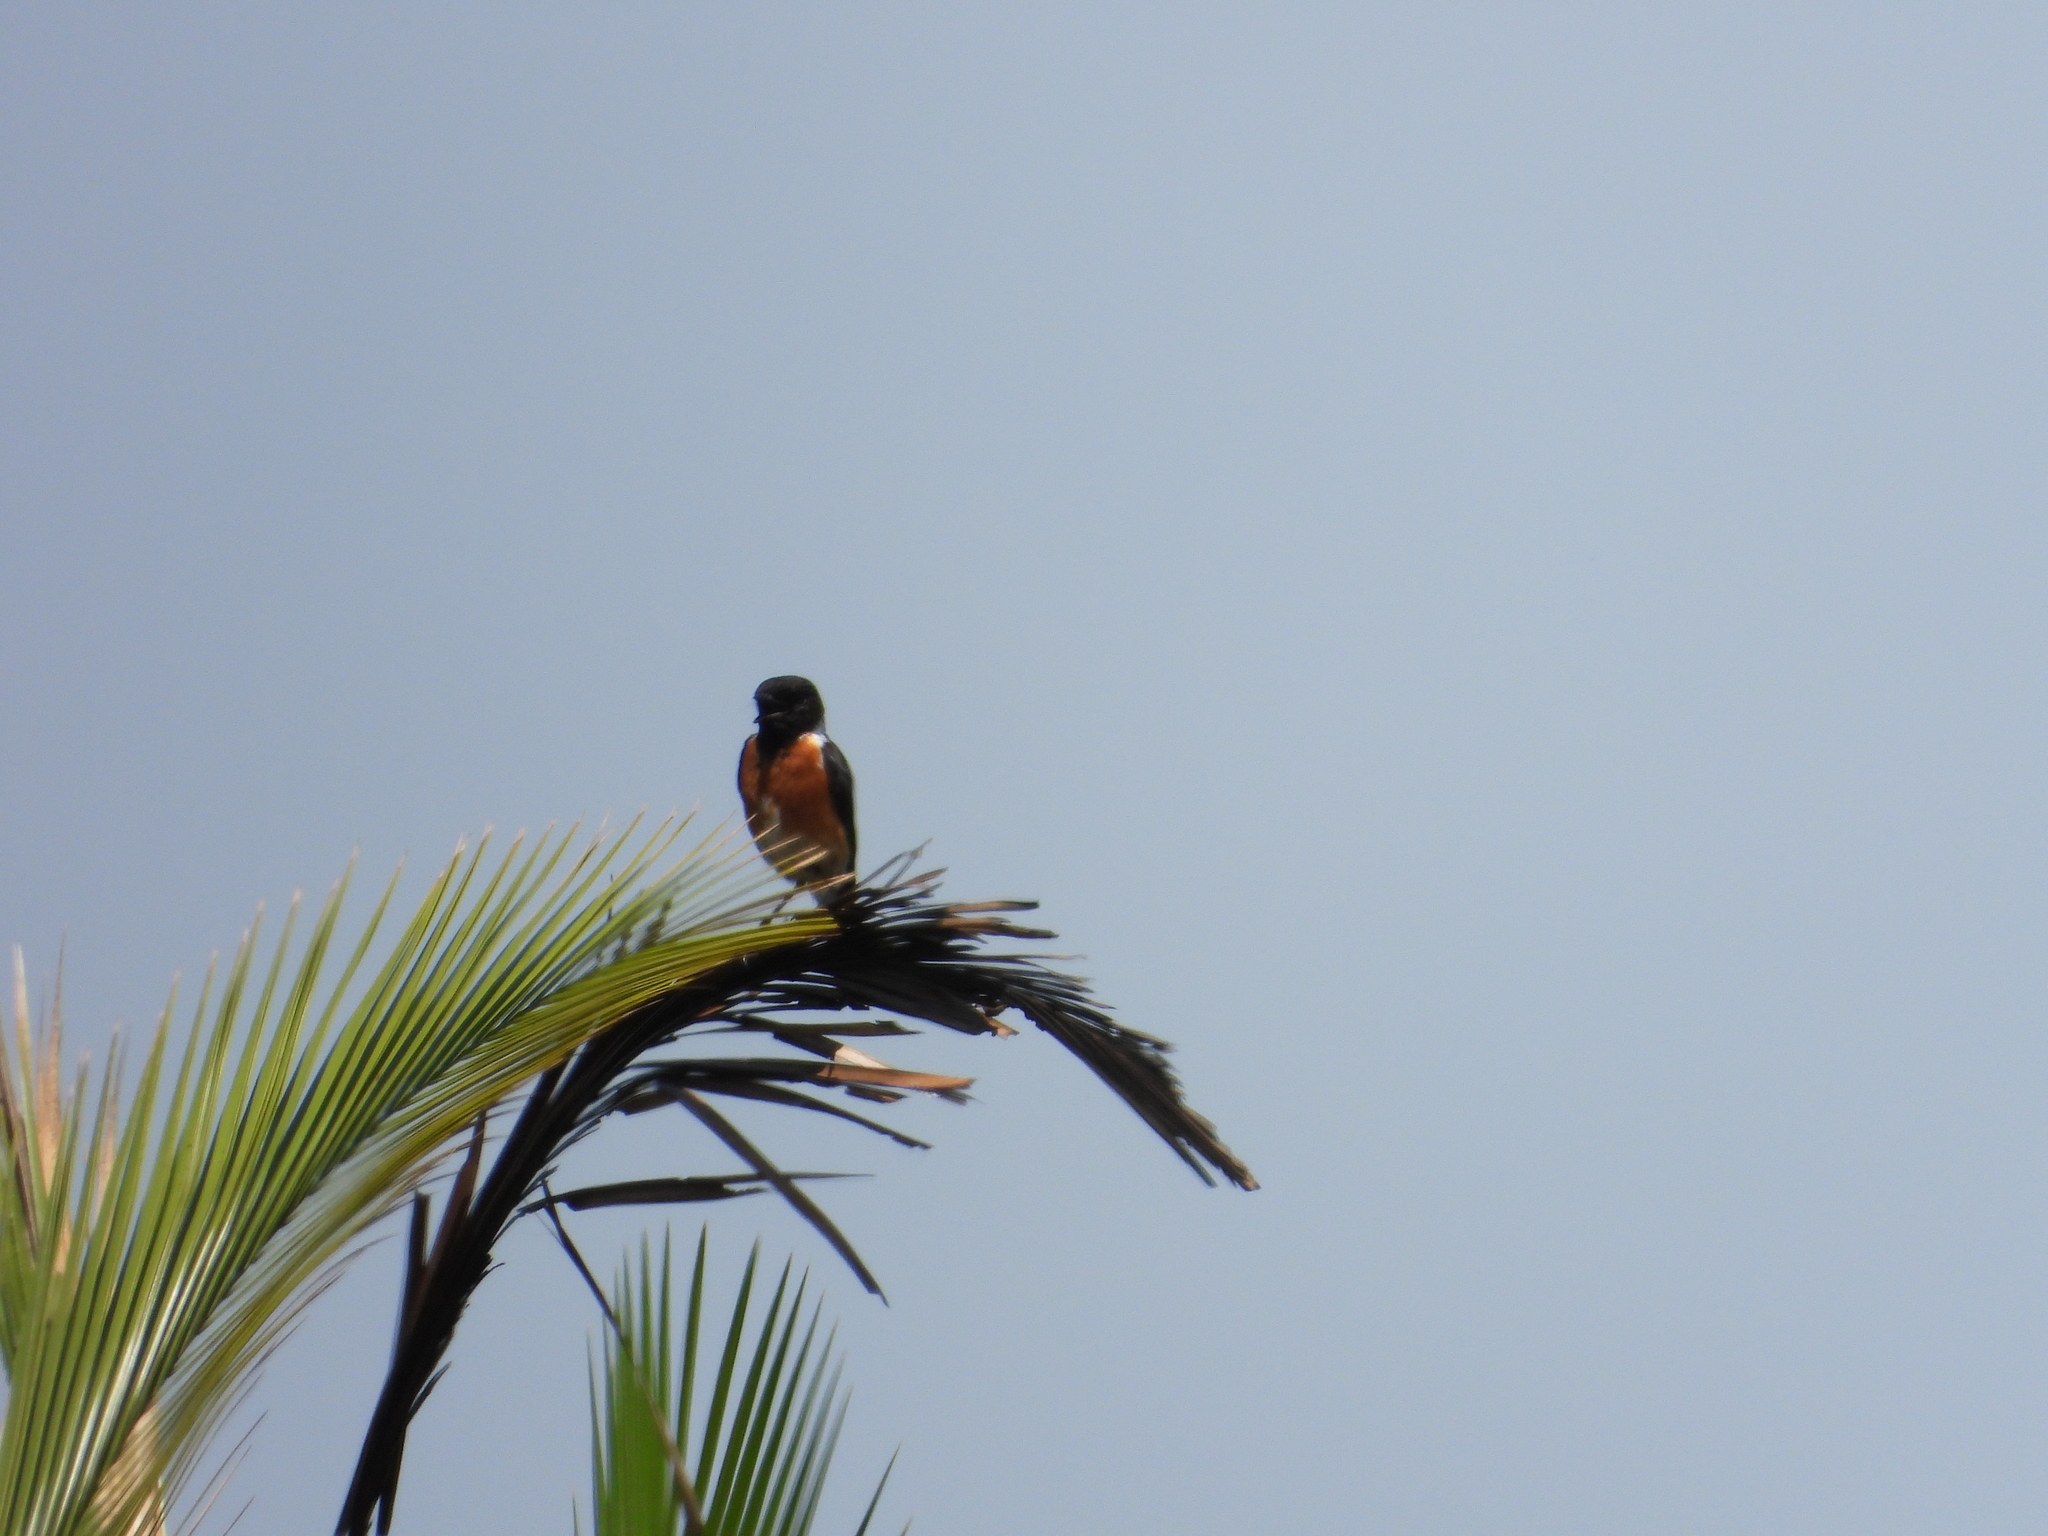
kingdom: Animalia
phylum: Chordata
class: Aves
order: Passeriformes
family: Muscicapidae
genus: Saxicola
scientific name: Saxicola torquatus
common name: African stonechat
